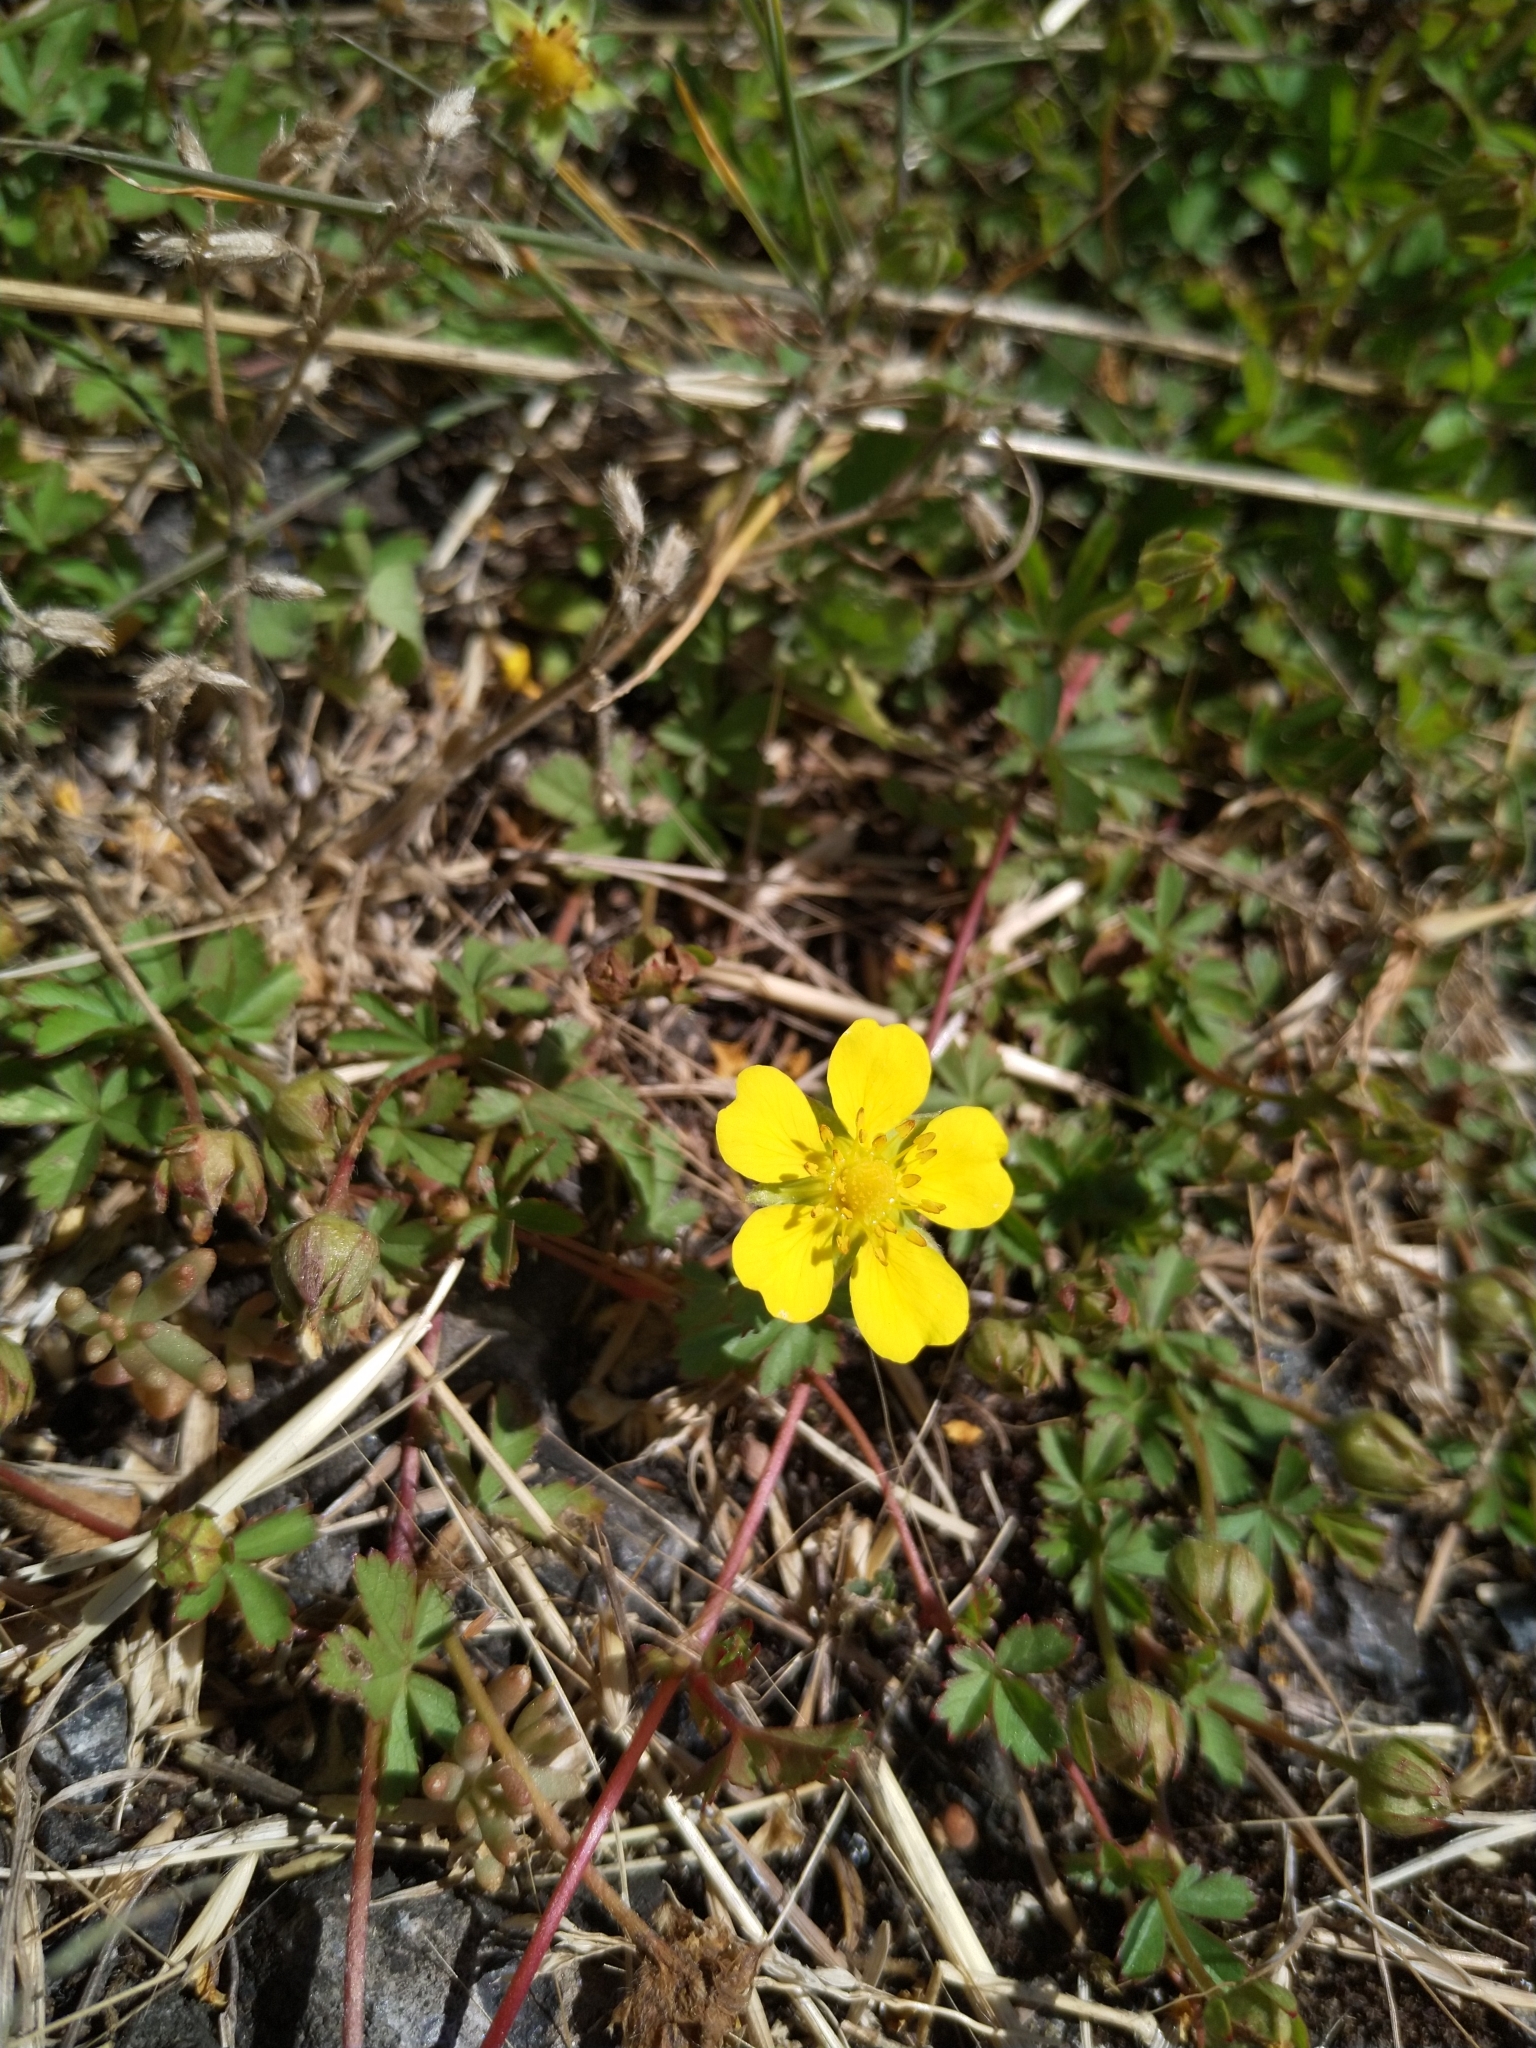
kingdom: Plantae
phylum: Tracheophyta
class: Magnoliopsida
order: Rosales
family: Rosaceae
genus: Potentilla
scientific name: Potentilla reptans
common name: Creeping cinquefoil
